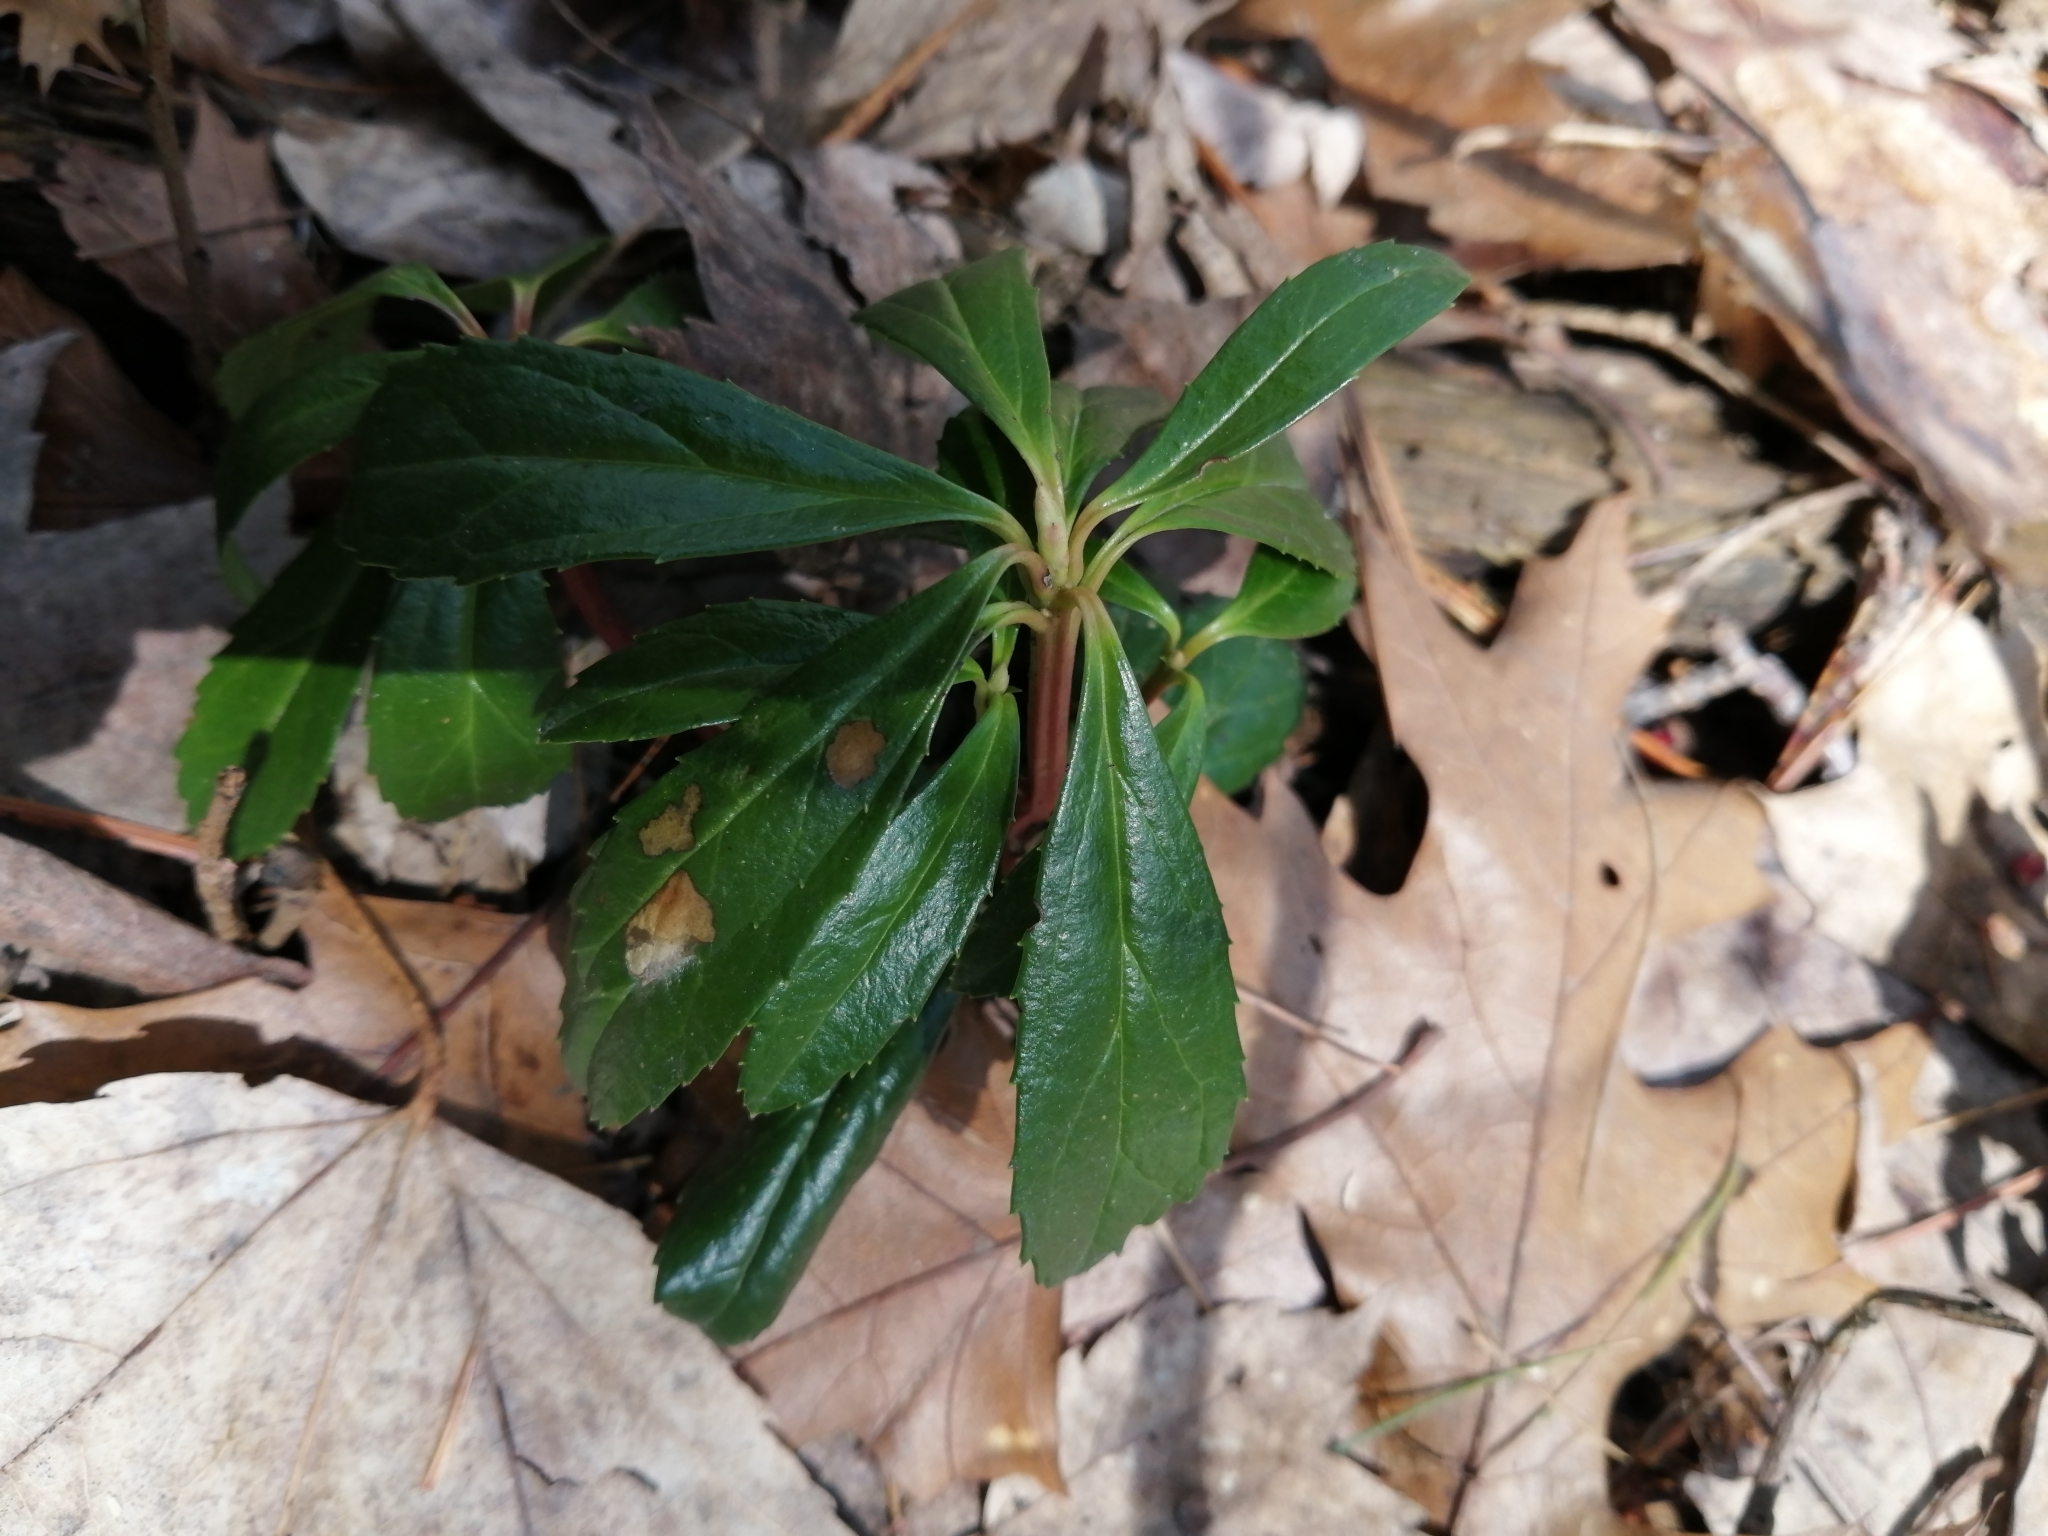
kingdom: Plantae
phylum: Tracheophyta
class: Magnoliopsida
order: Ericales
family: Ericaceae
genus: Chimaphila
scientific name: Chimaphila umbellata
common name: Pipsissewa
